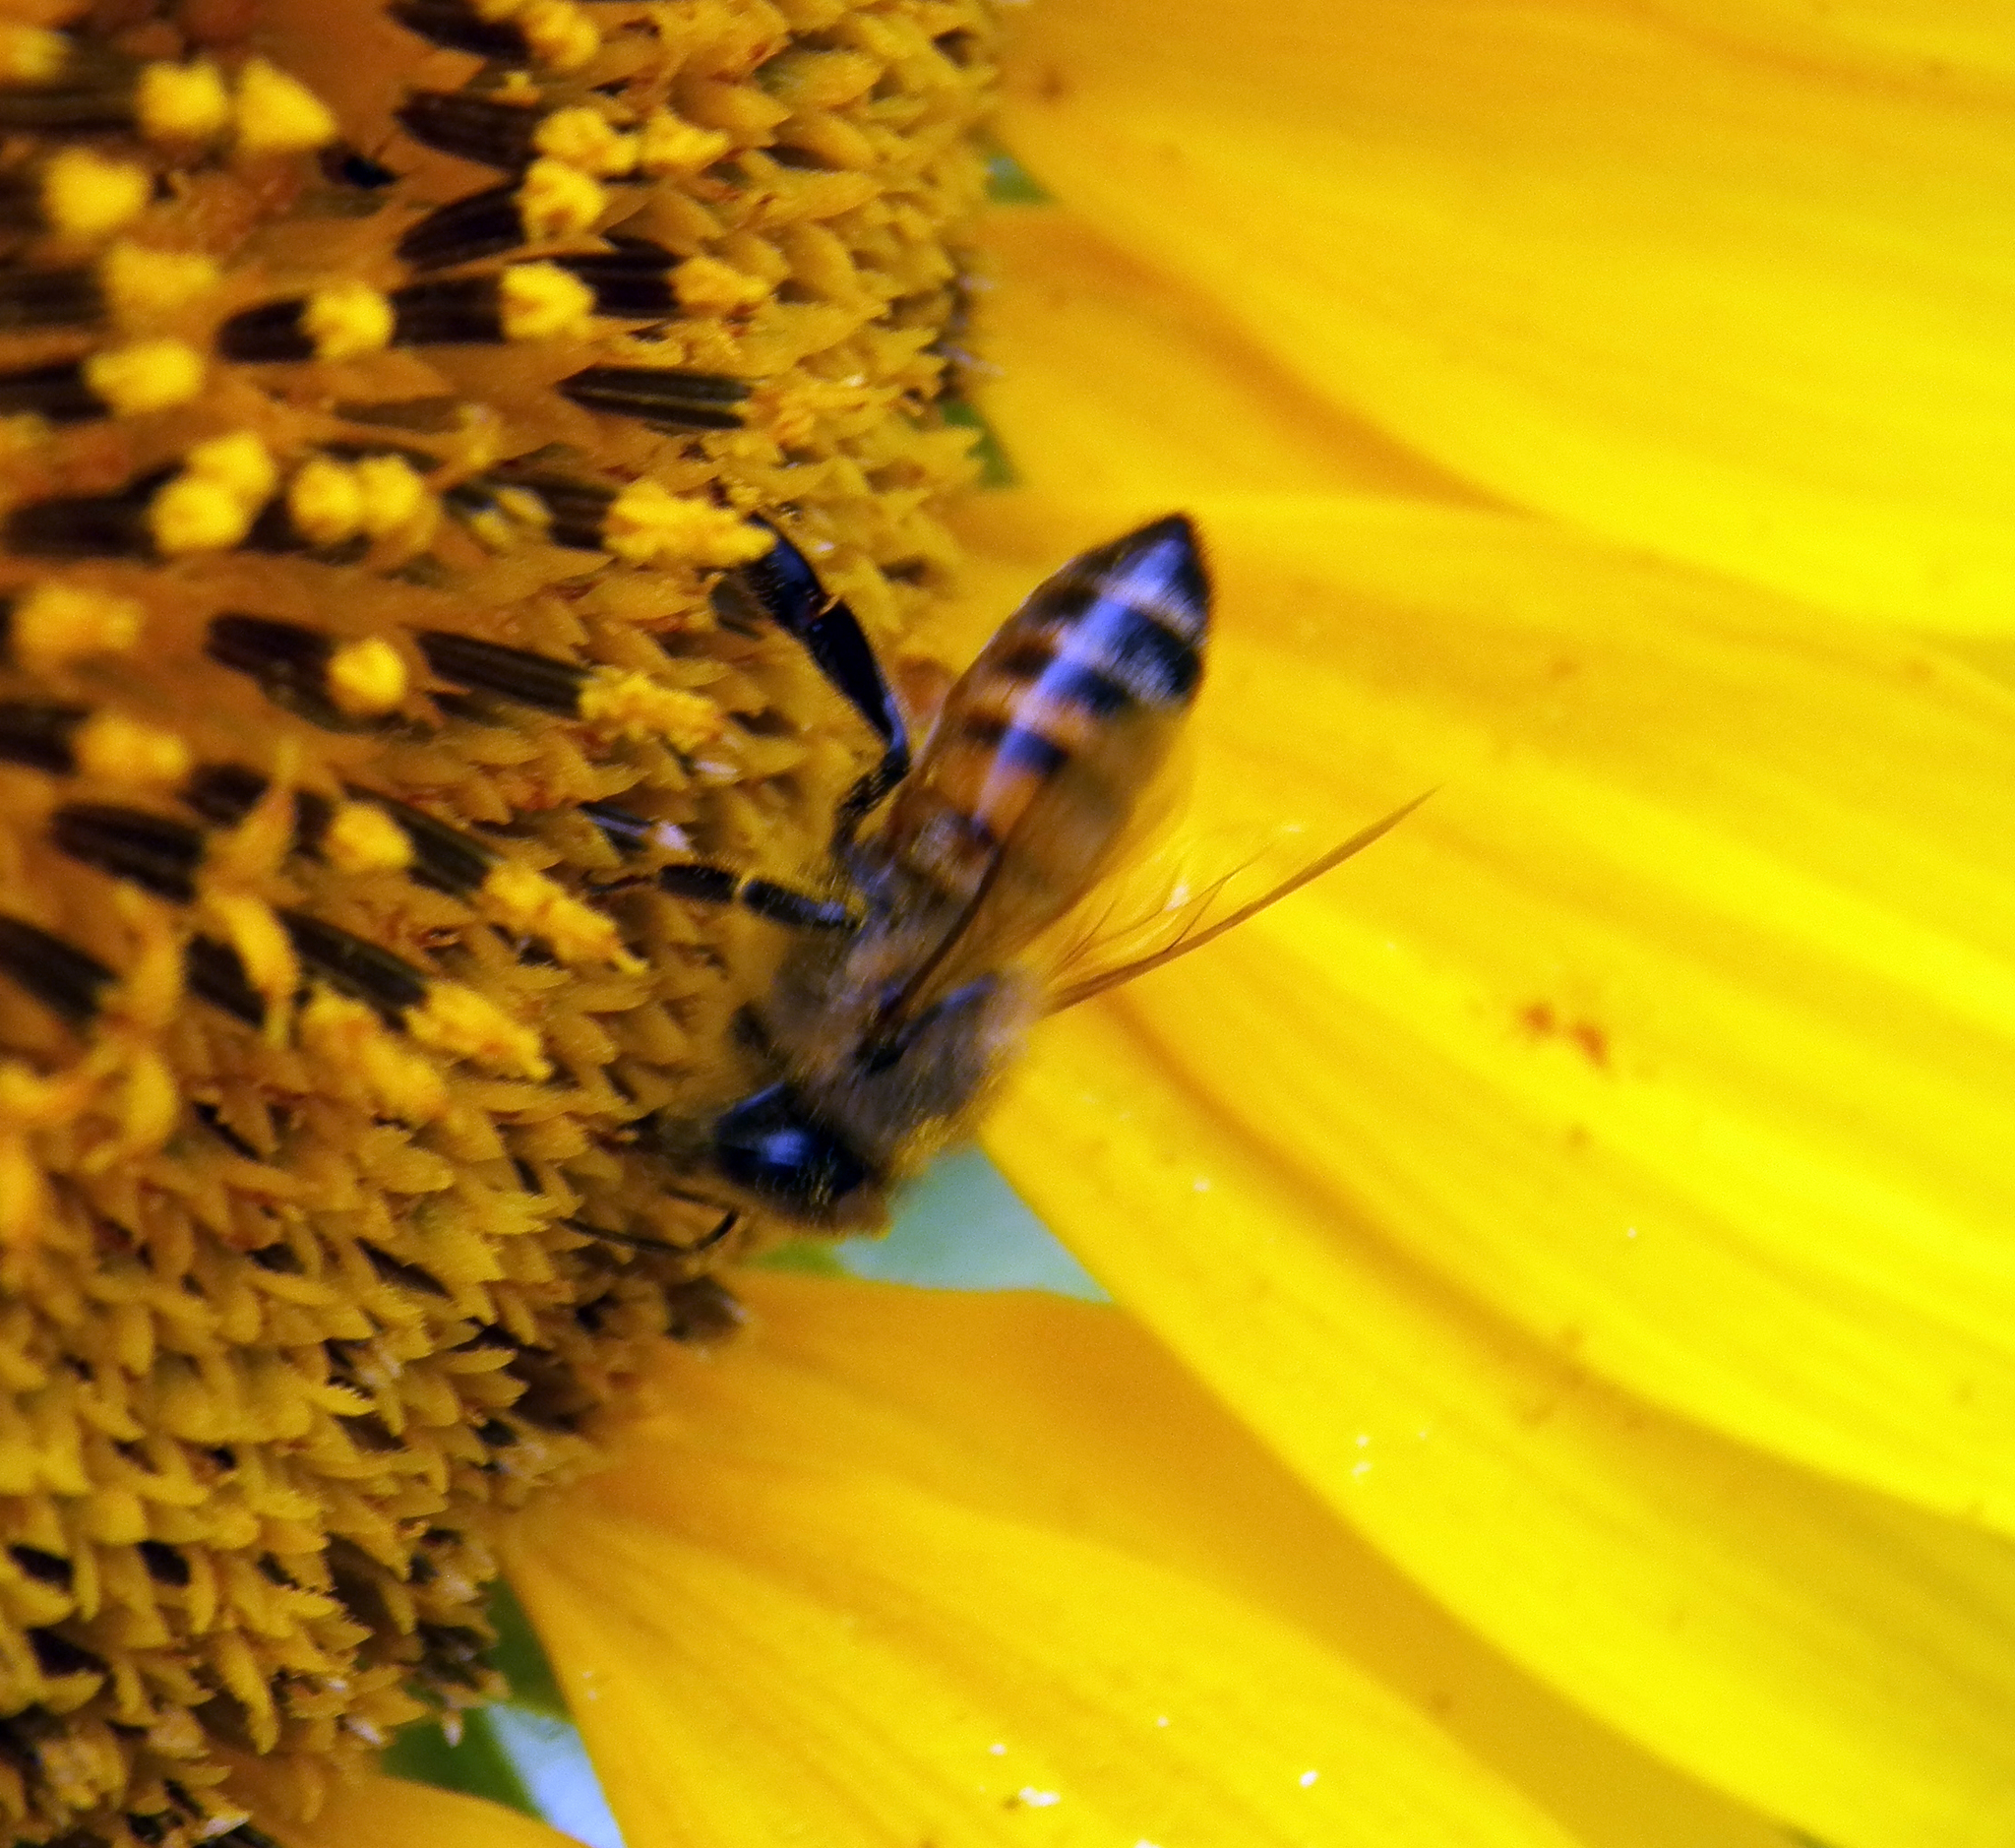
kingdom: Animalia
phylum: Arthropoda
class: Insecta
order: Hymenoptera
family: Apidae
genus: Apis
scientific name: Apis mellifera
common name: Honey bee
